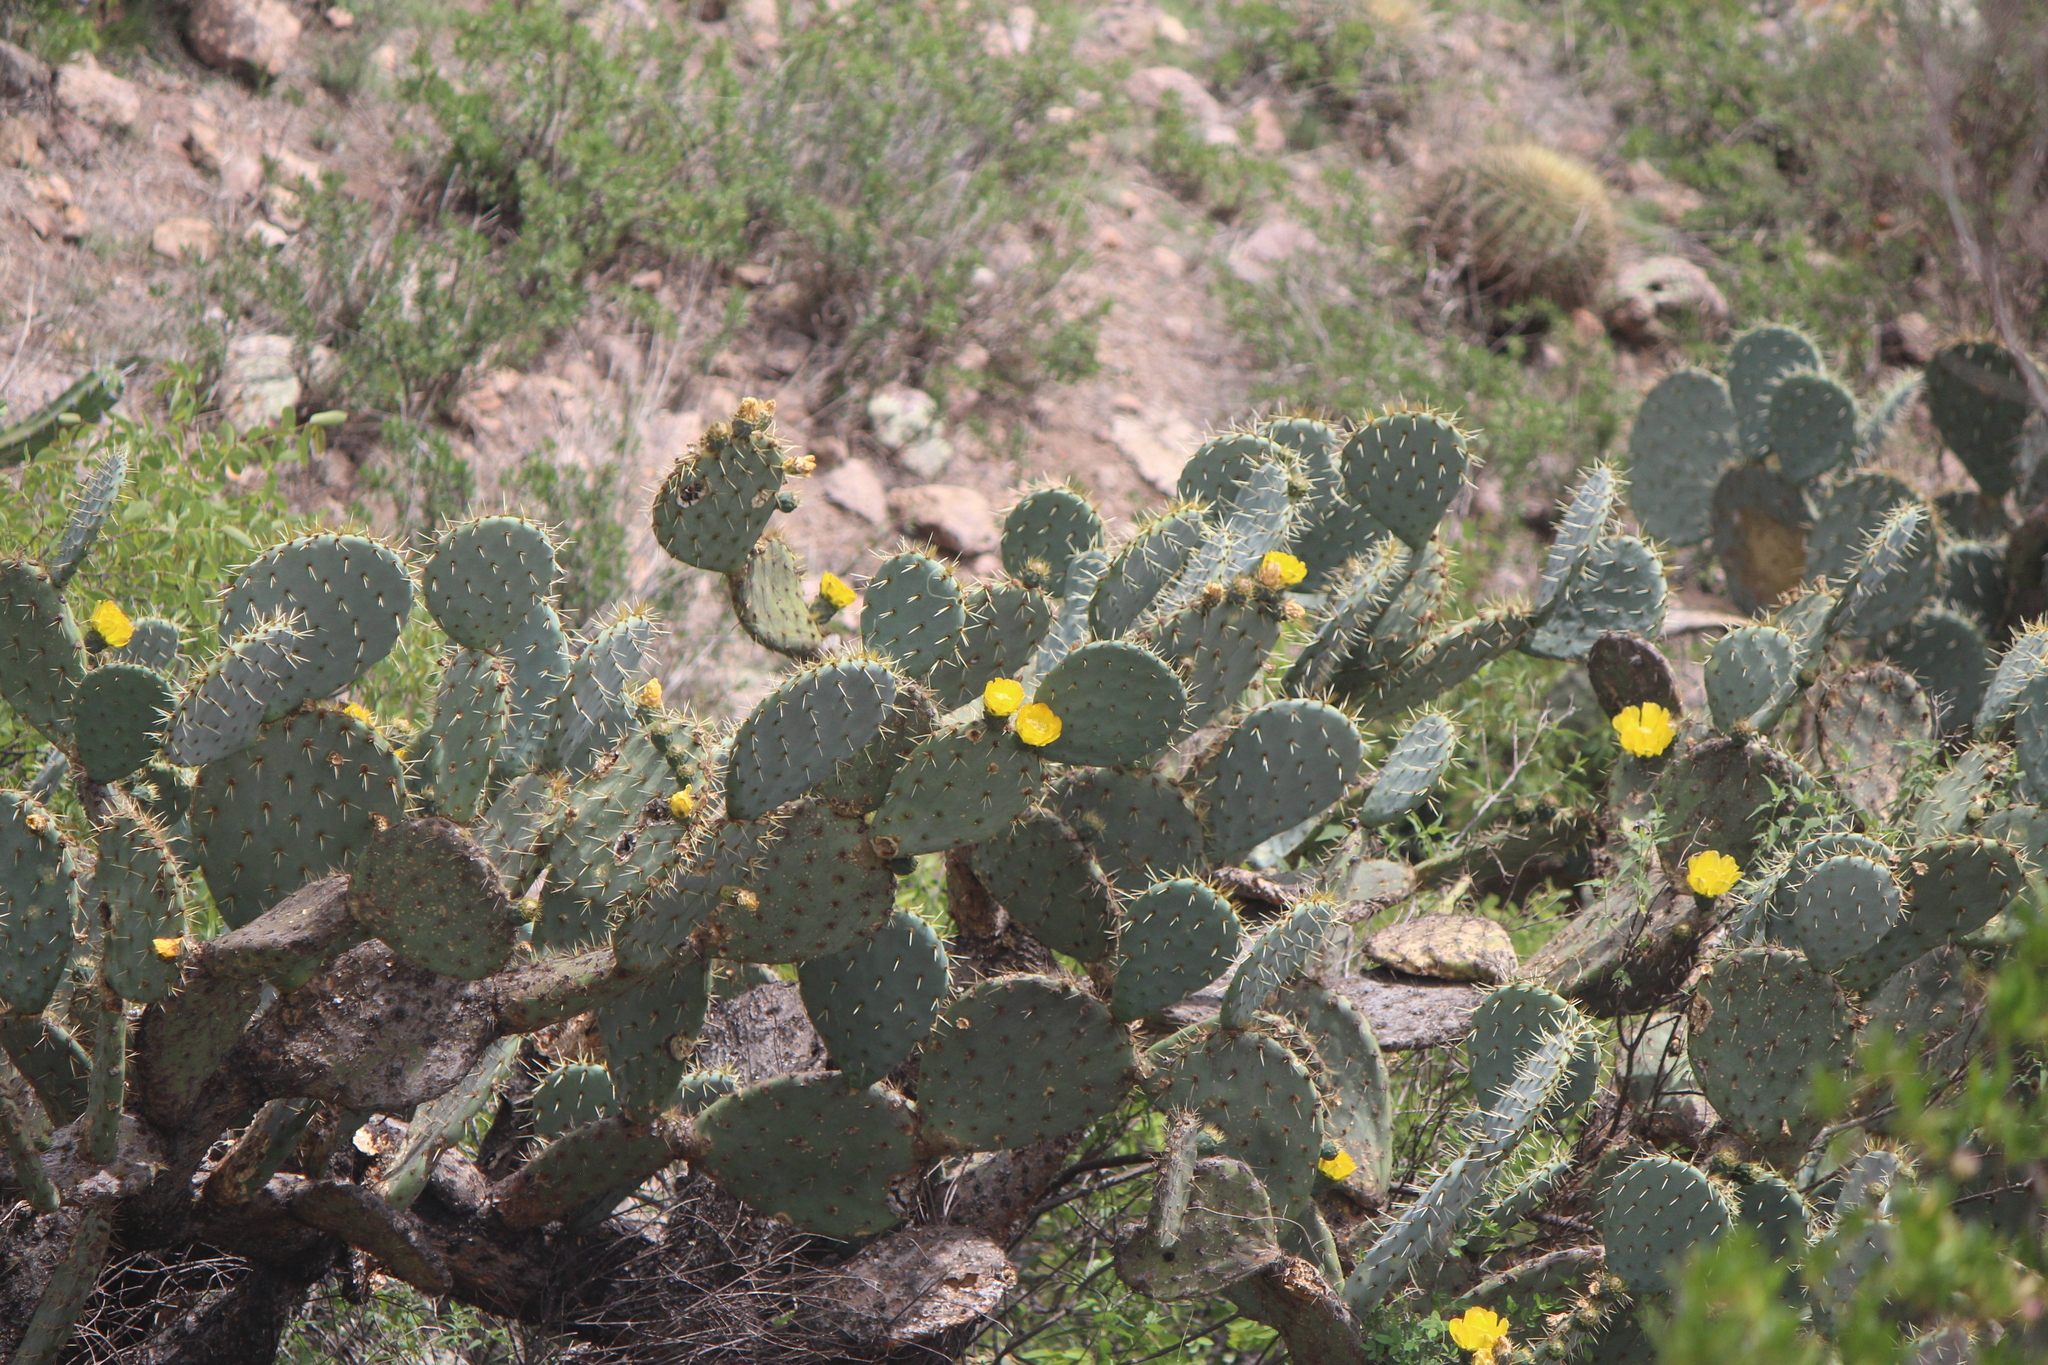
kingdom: Plantae
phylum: Tracheophyta
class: Magnoliopsida
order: Caryophyllales
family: Cactaceae
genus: Opuntia
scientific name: Opuntia robusta
